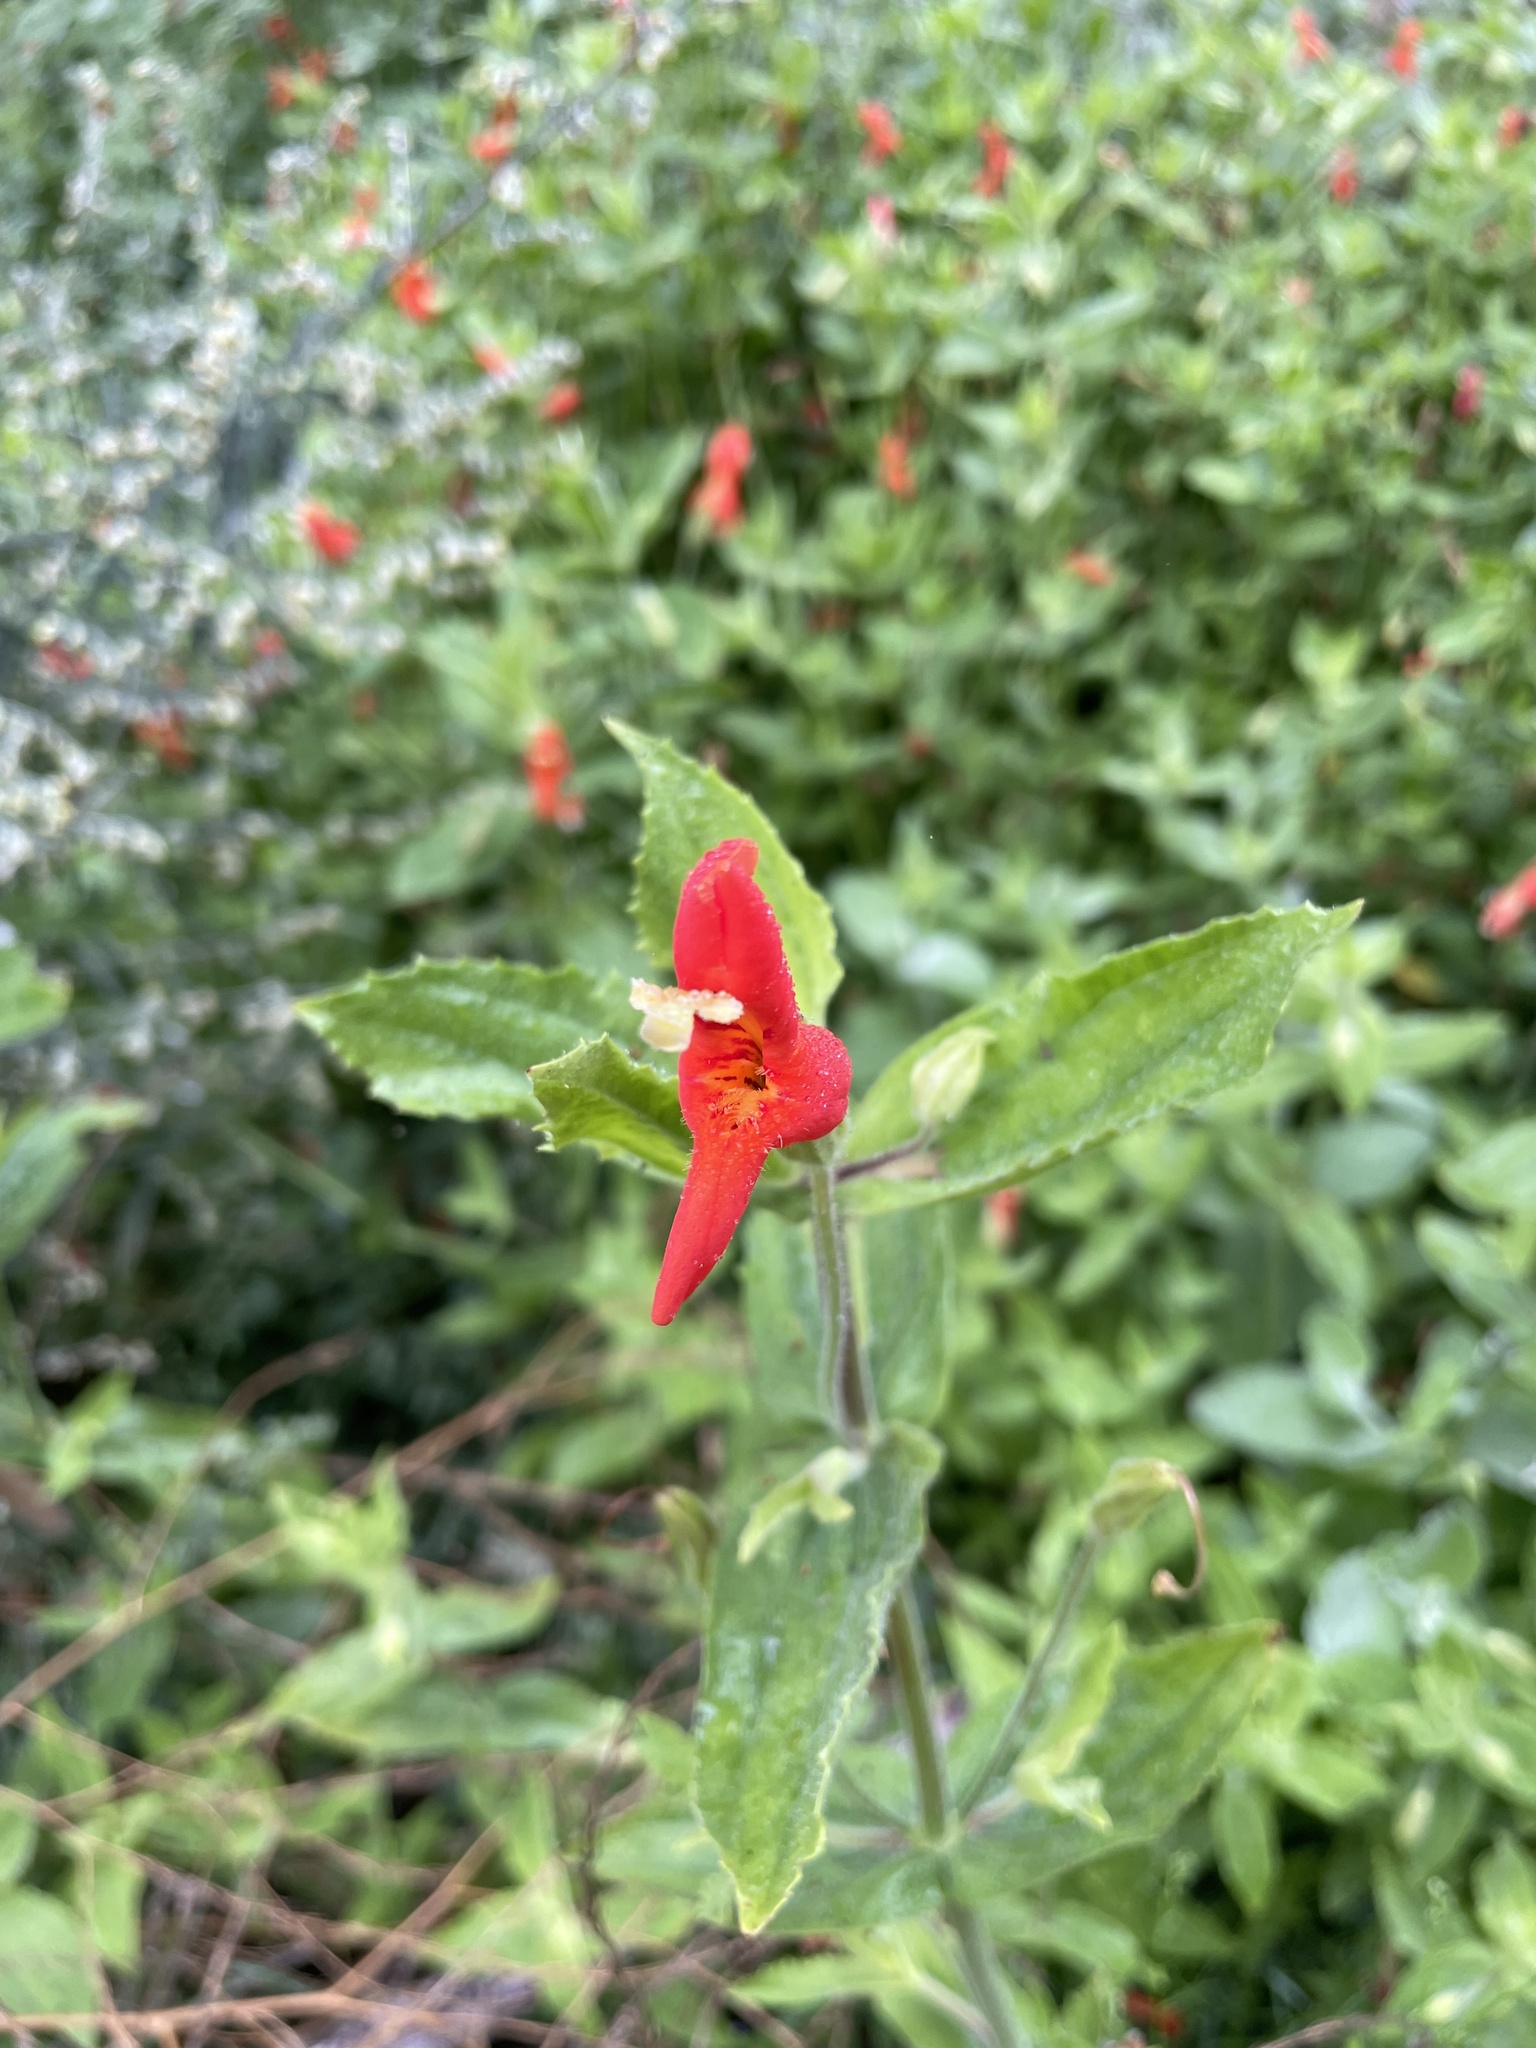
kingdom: Plantae
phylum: Tracheophyta
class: Magnoliopsida
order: Lamiales
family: Phrymaceae
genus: Erythranthe
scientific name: Erythranthe cardinalis
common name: Scarlet monkey-flower
